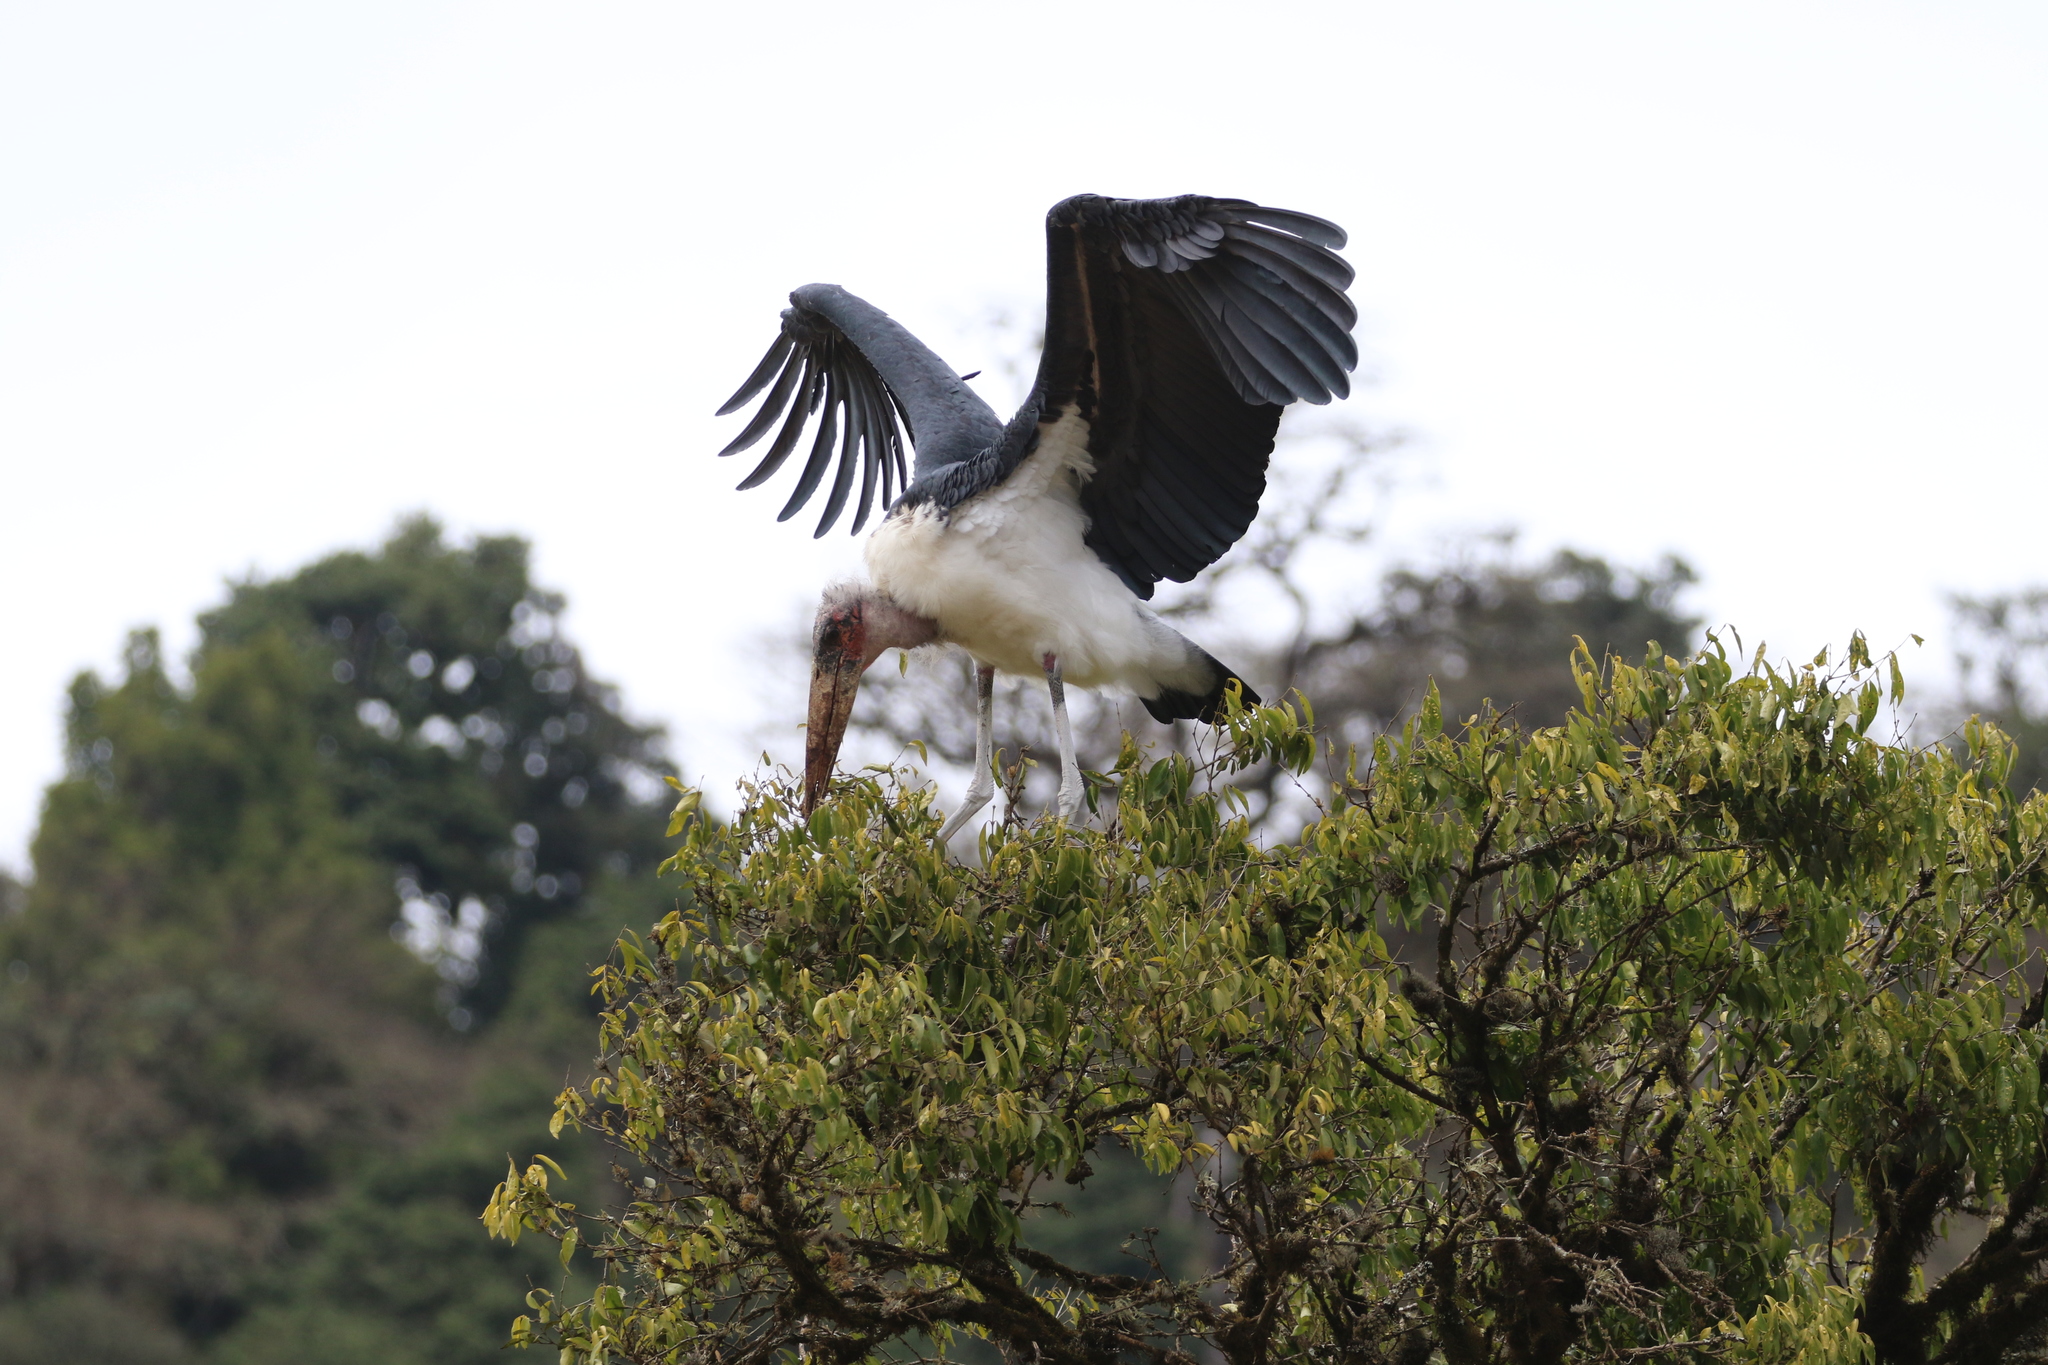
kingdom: Animalia
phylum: Chordata
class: Aves
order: Ciconiiformes
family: Ciconiidae
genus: Leptoptilos
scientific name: Leptoptilos crumenifer
